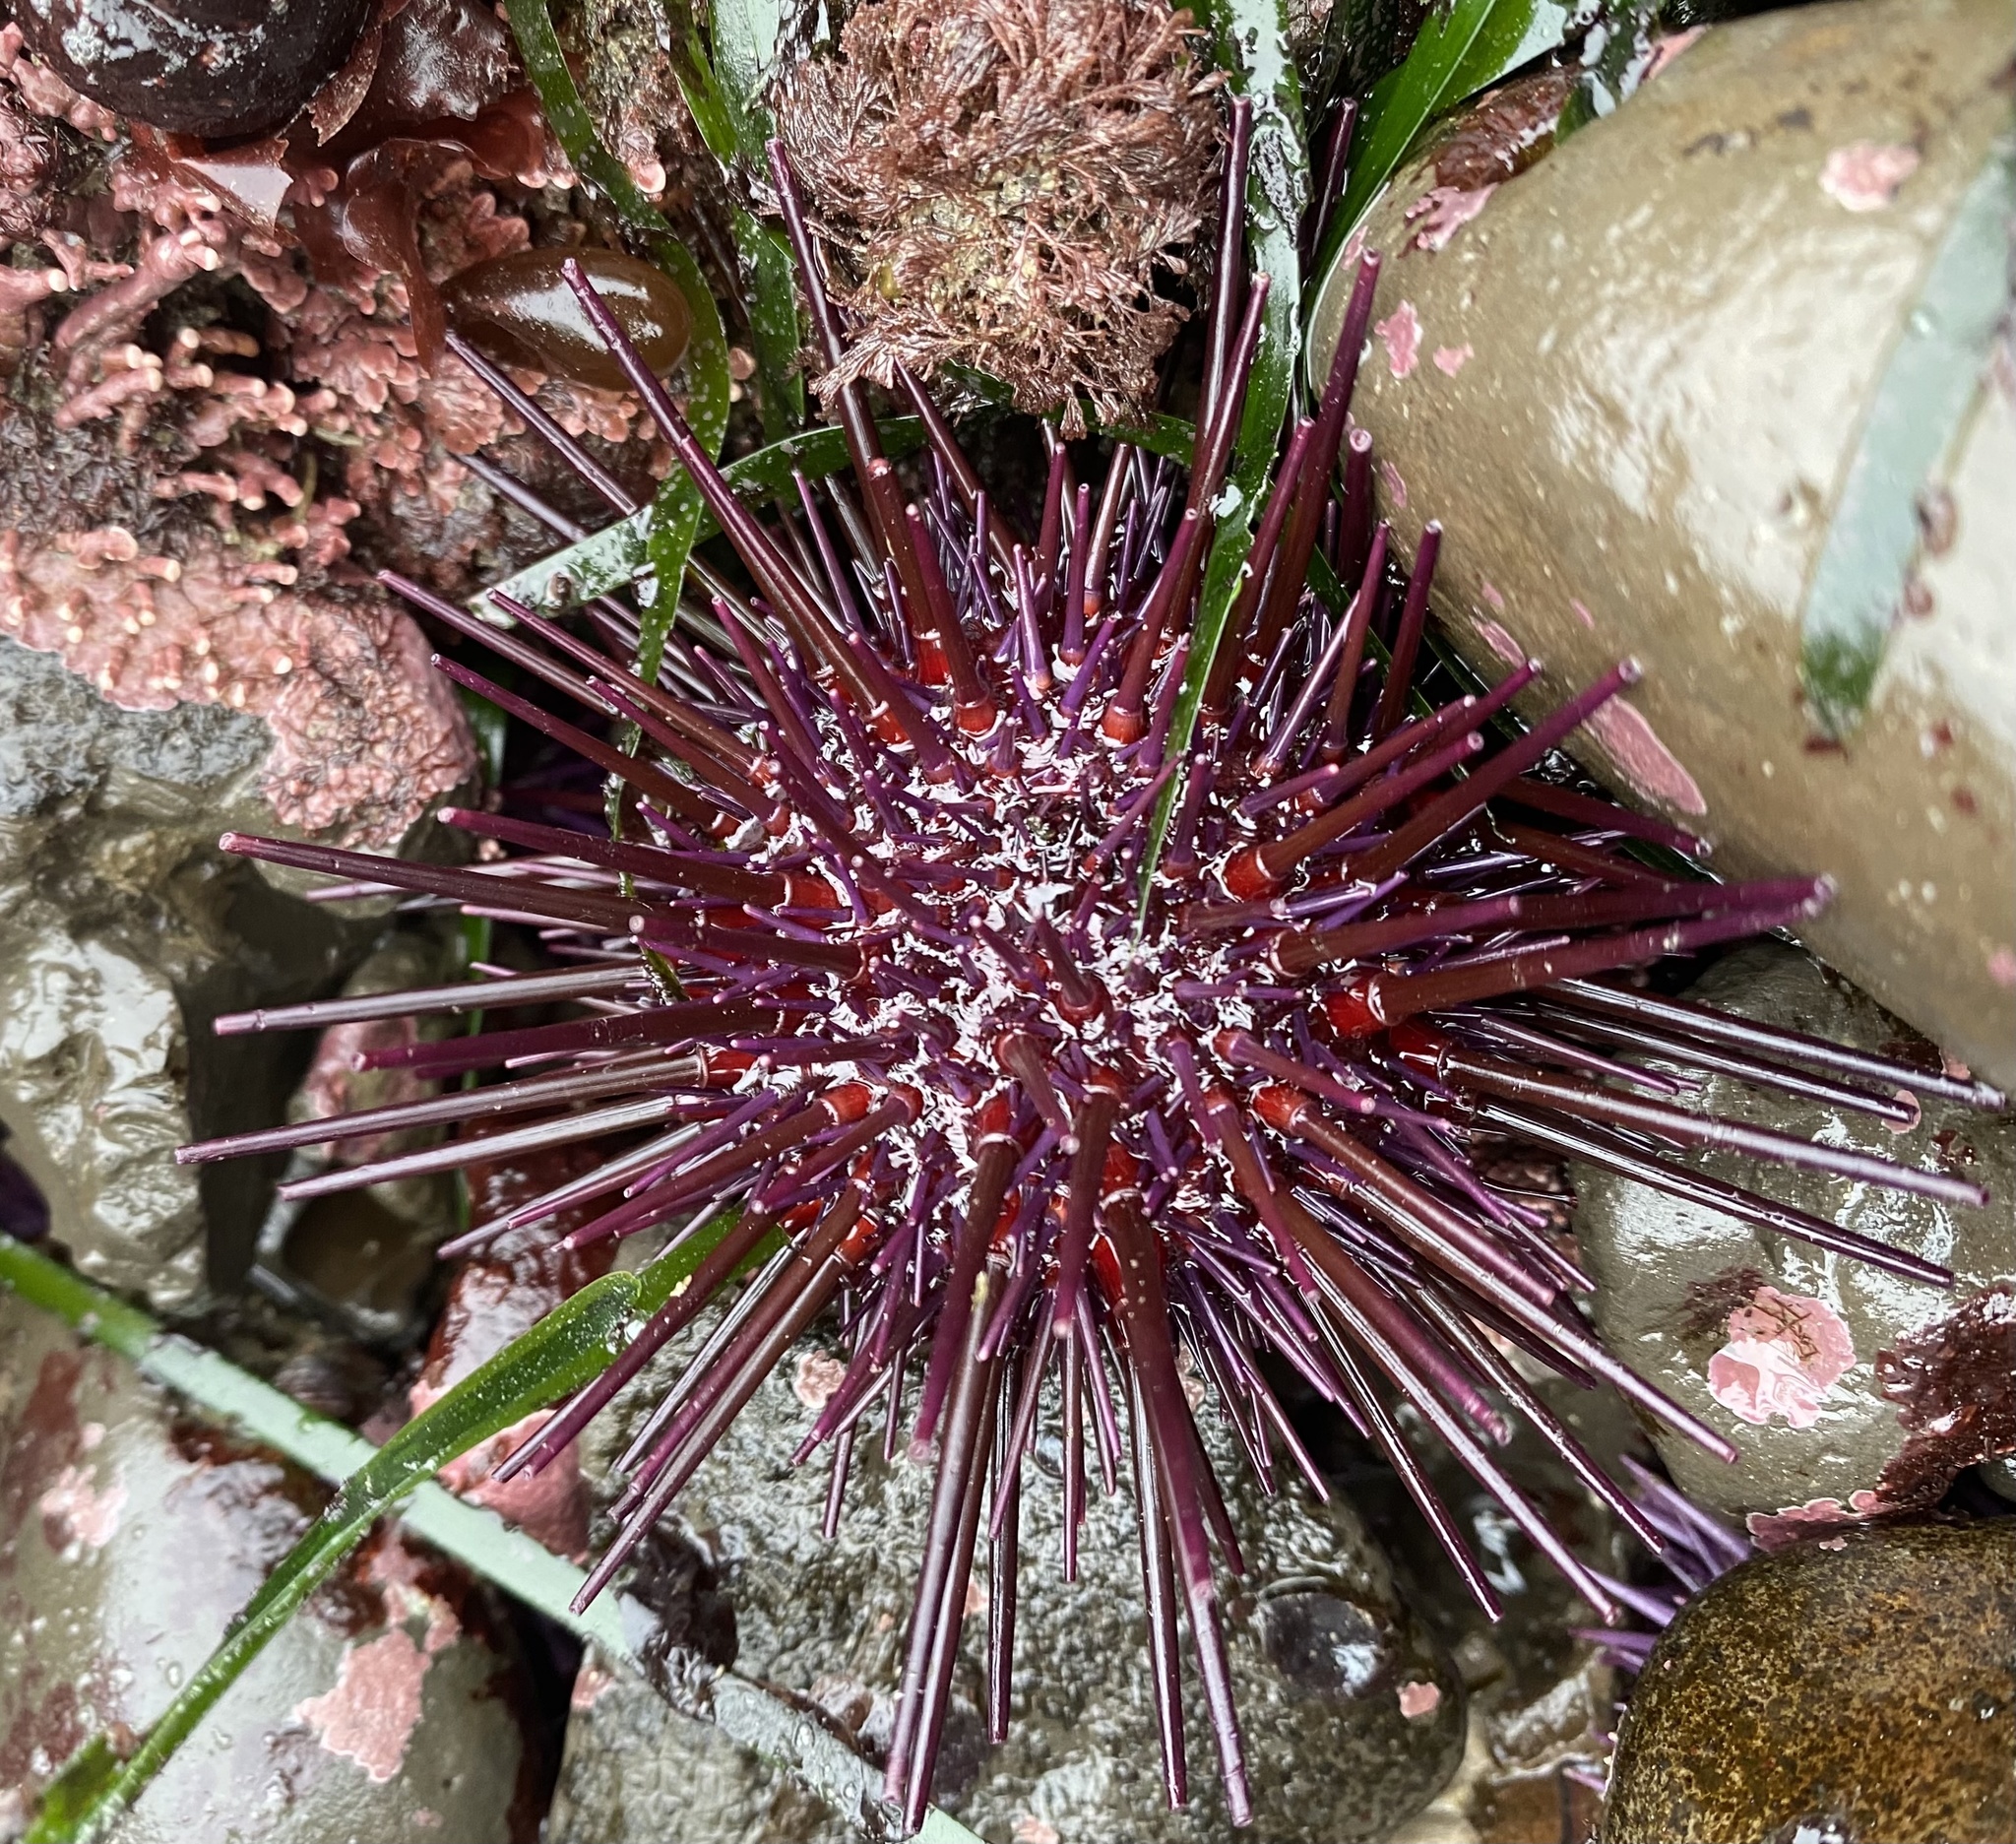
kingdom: Animalia
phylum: Echinodermata
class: Echinoidea
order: Camarodonta
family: Strongylocentrotidae
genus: Mesocentrotus
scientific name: Mesocentrotus franciscanus
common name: Red sea urchin
